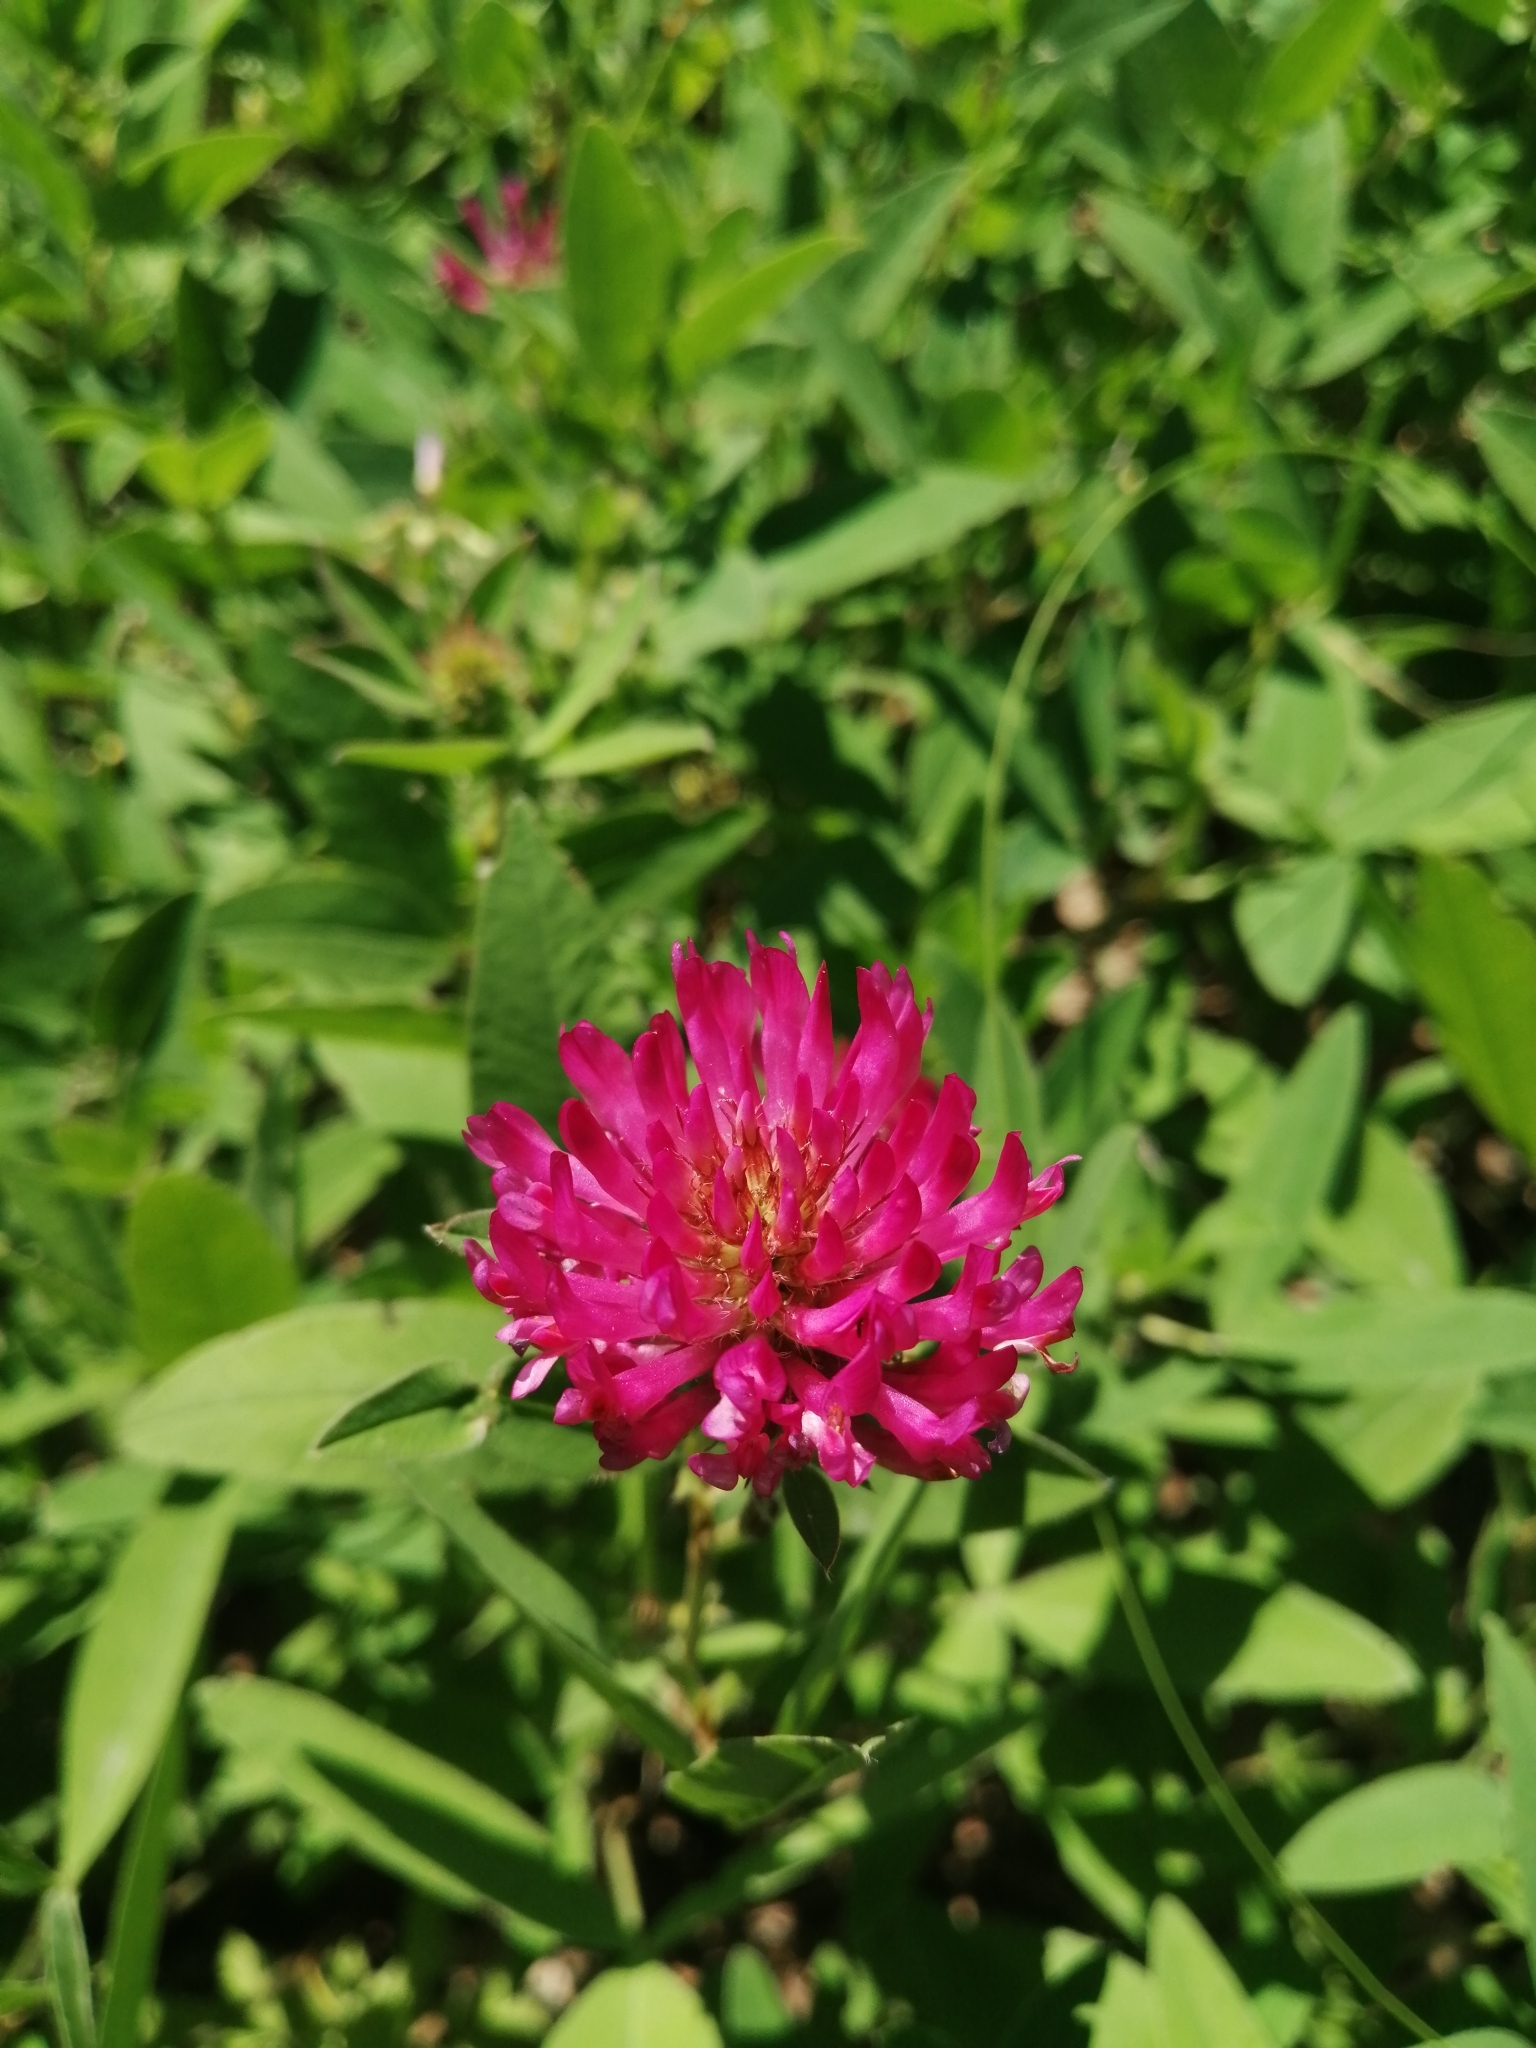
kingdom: Plantae
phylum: Tracheophyta
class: Magnoliopsida
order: Fabales
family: Fabaceae
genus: Trifolium
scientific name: Trifolium medium
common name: Zigzag clover
